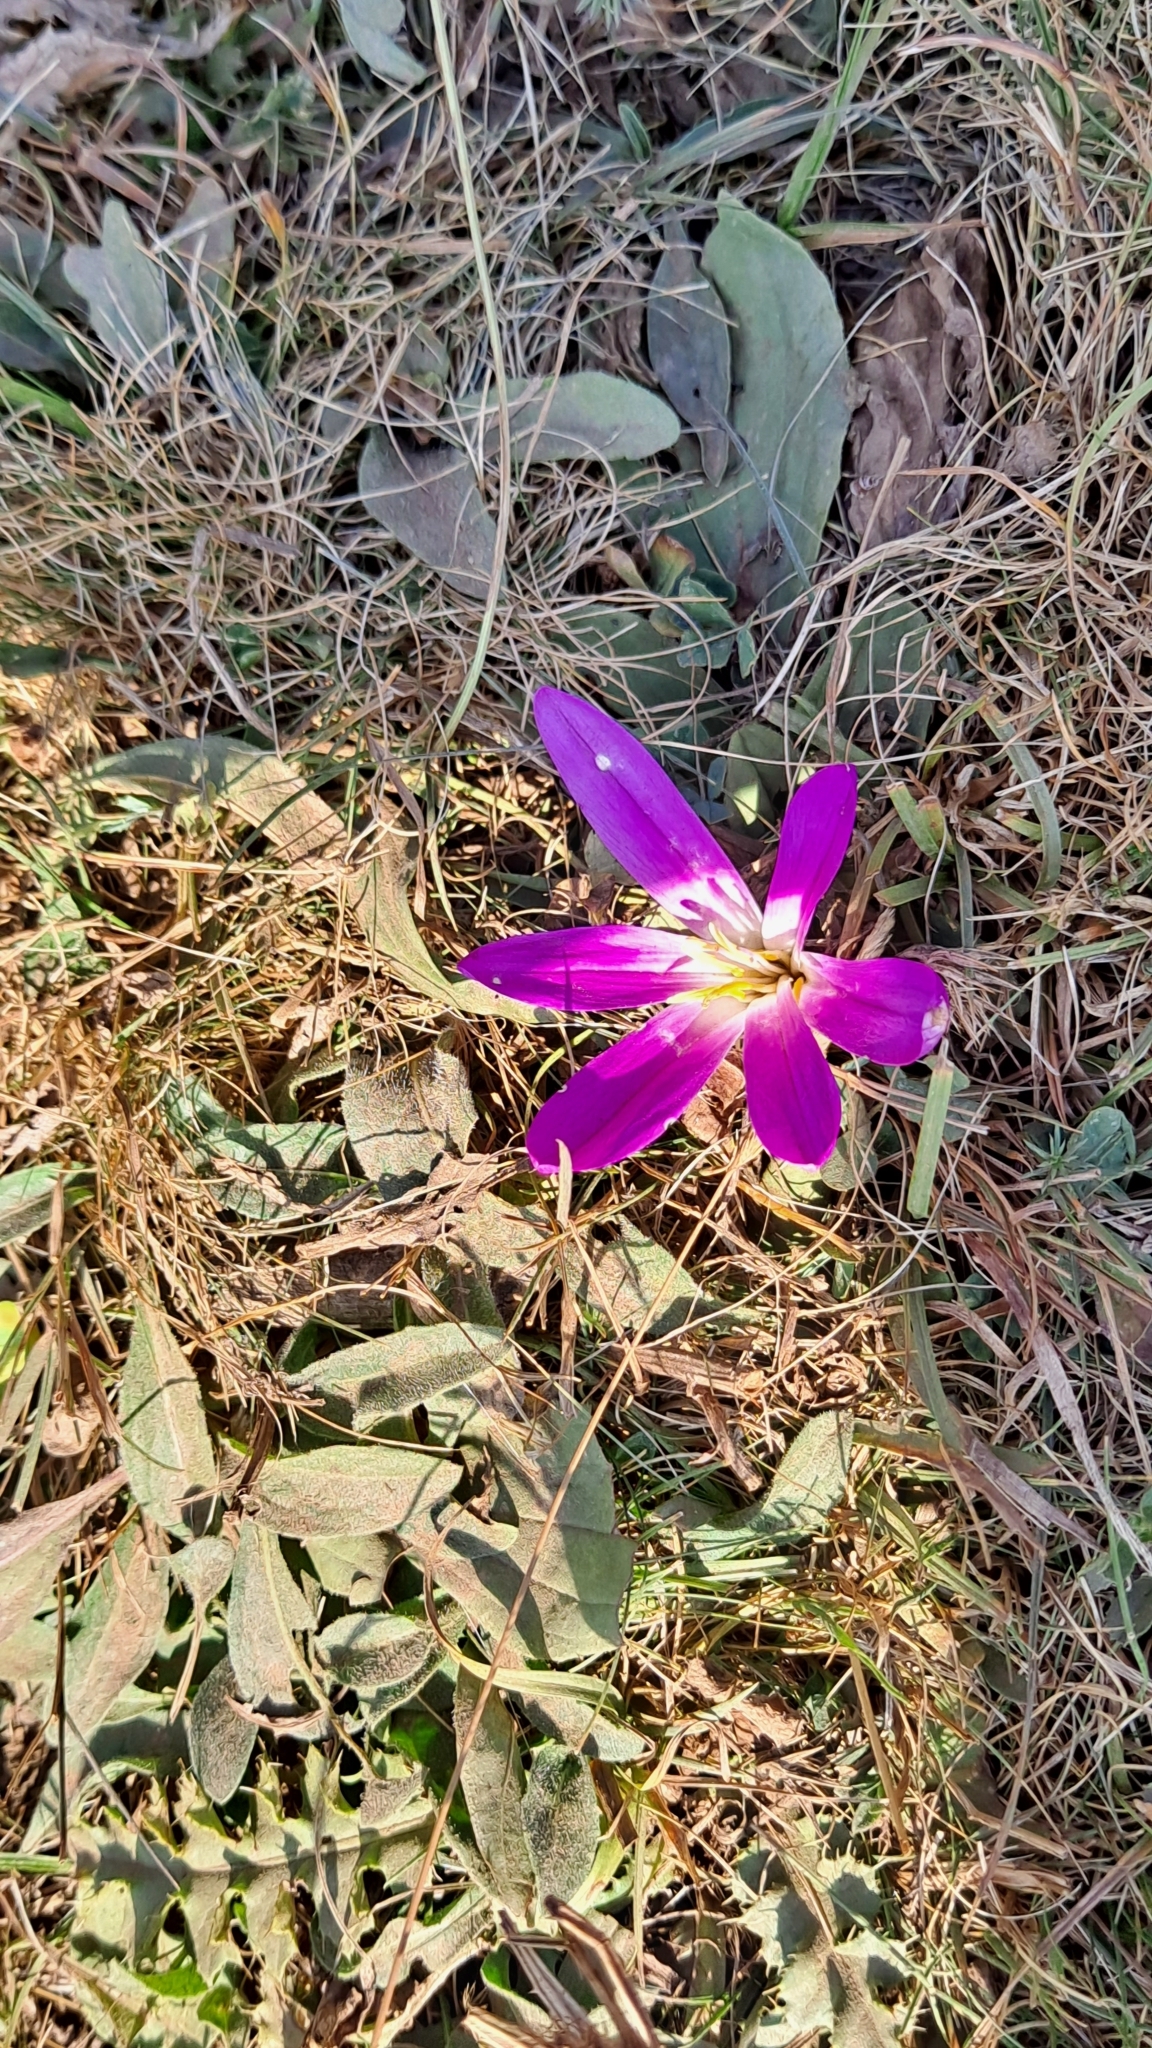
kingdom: Plantae
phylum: Tracheophyta
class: Liliopsida
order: Liliales
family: Colchicaceae
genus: Colchicum
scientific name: Colchicum montanum
